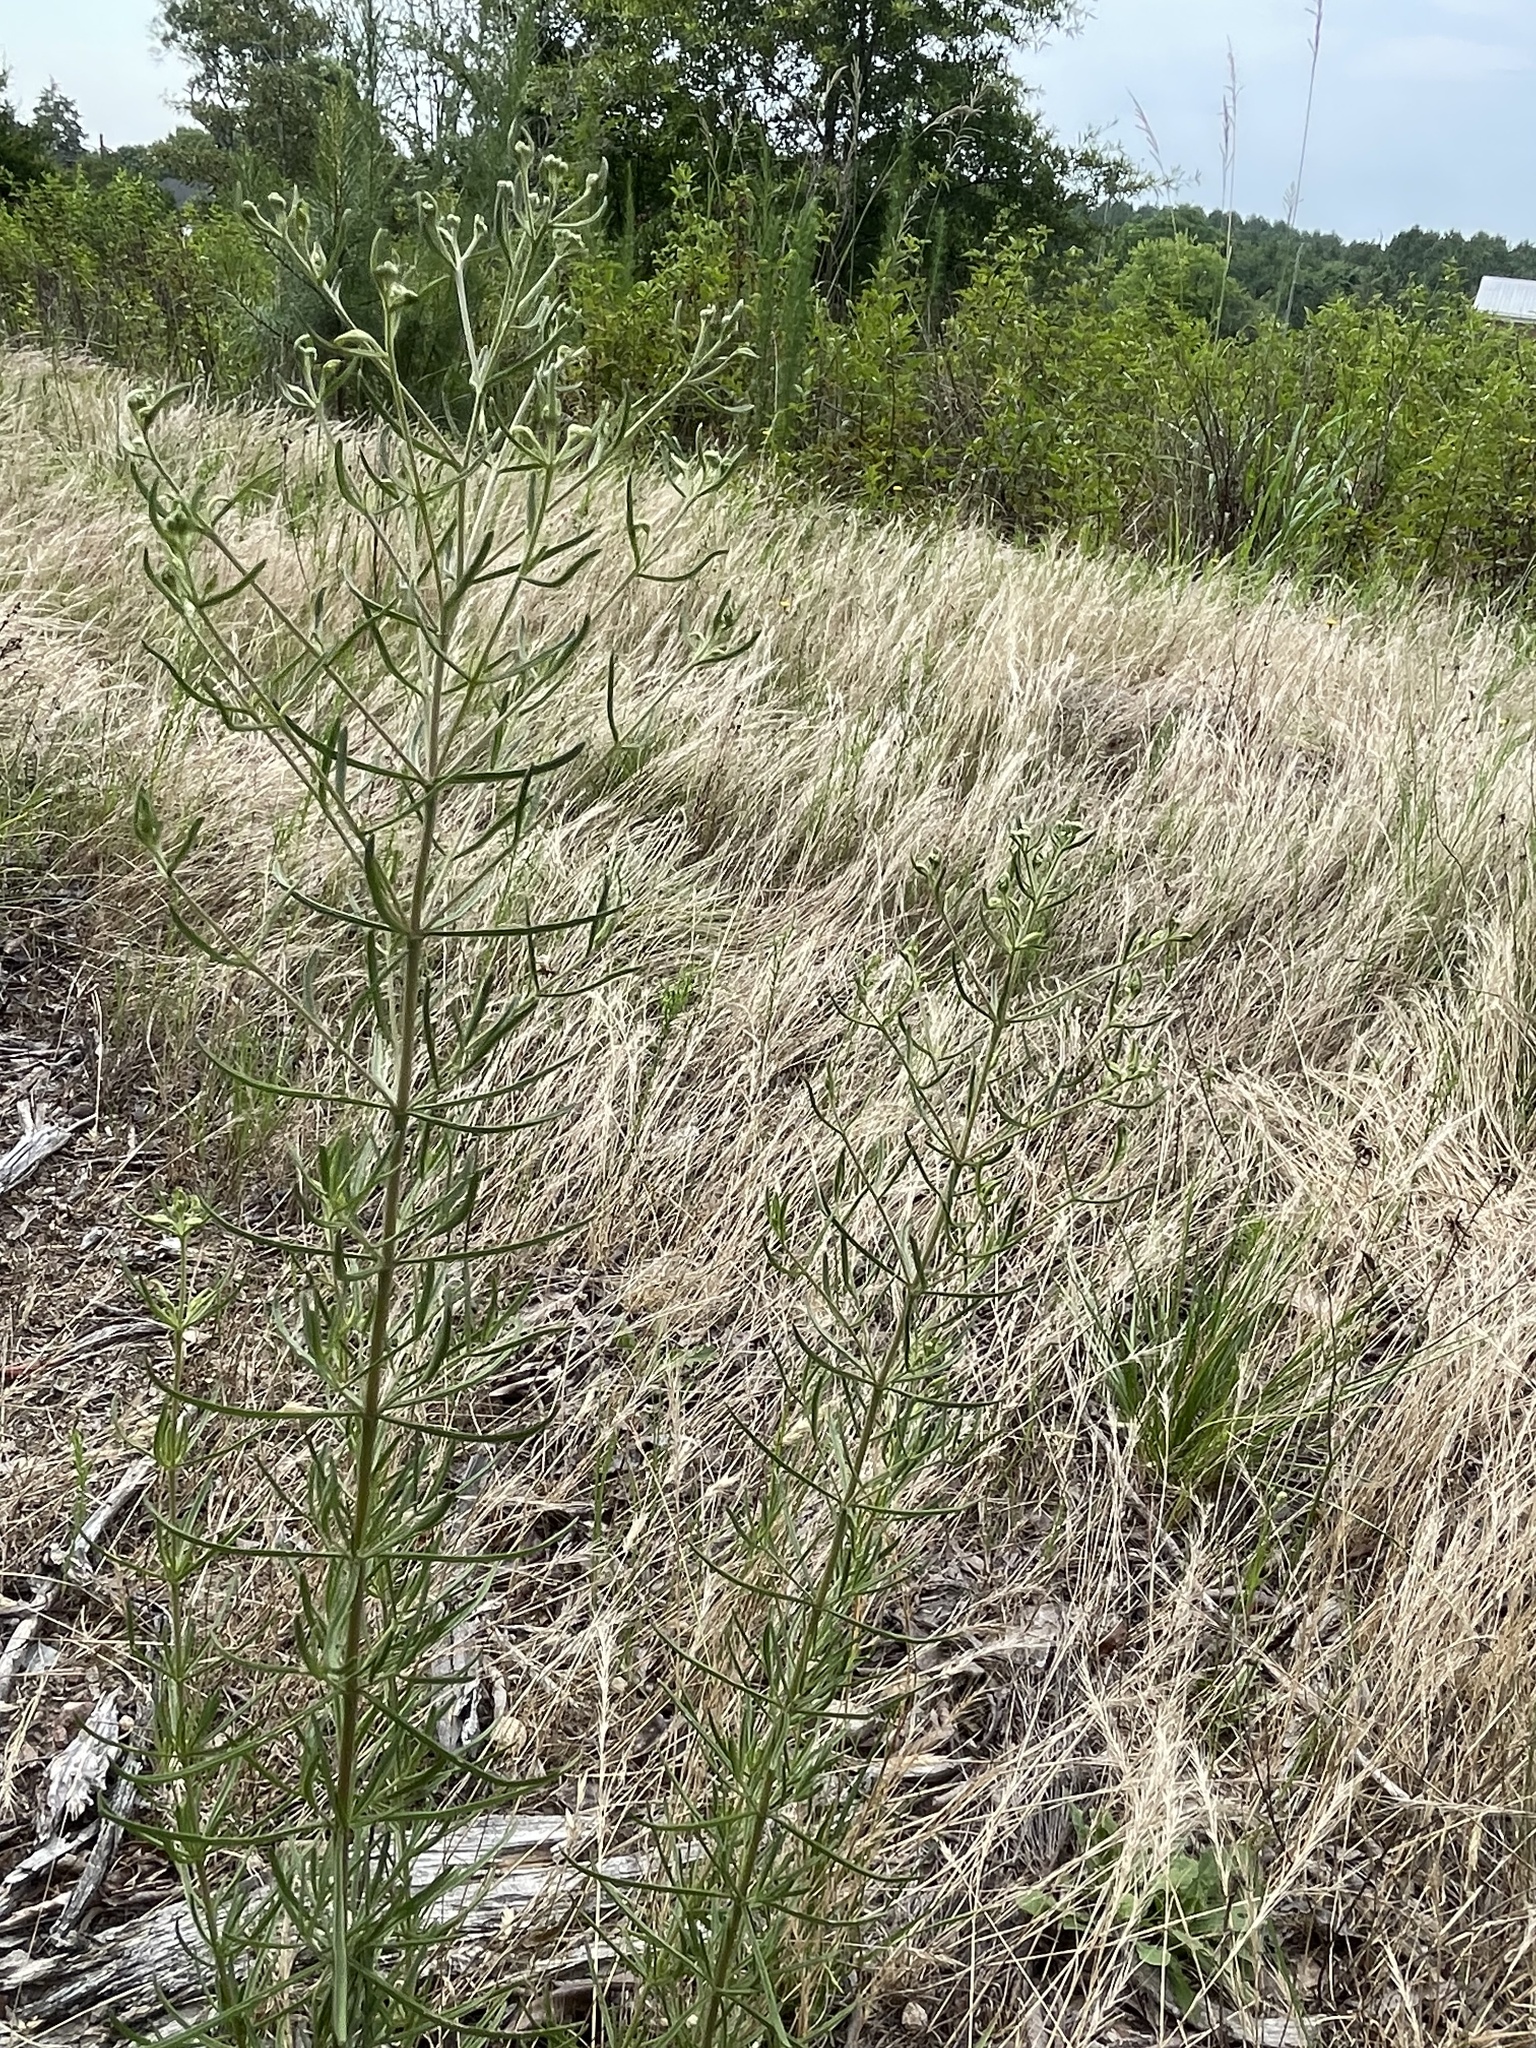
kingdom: Plantae
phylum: Tracheophyta
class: Magnoliopsida
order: Asterales
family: Asteraceae
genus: Eupatorium
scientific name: Eupatorium hyssopifolium
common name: Hyssop-leaf thoroughwort
